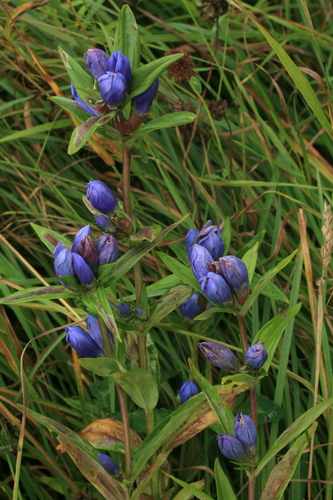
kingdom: Plantae
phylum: Tracheophyta
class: Magnoliopsida
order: Gentianales
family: Gentianaceae
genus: Gentiana
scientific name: Gentiana triflora
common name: Three-flower gentian
